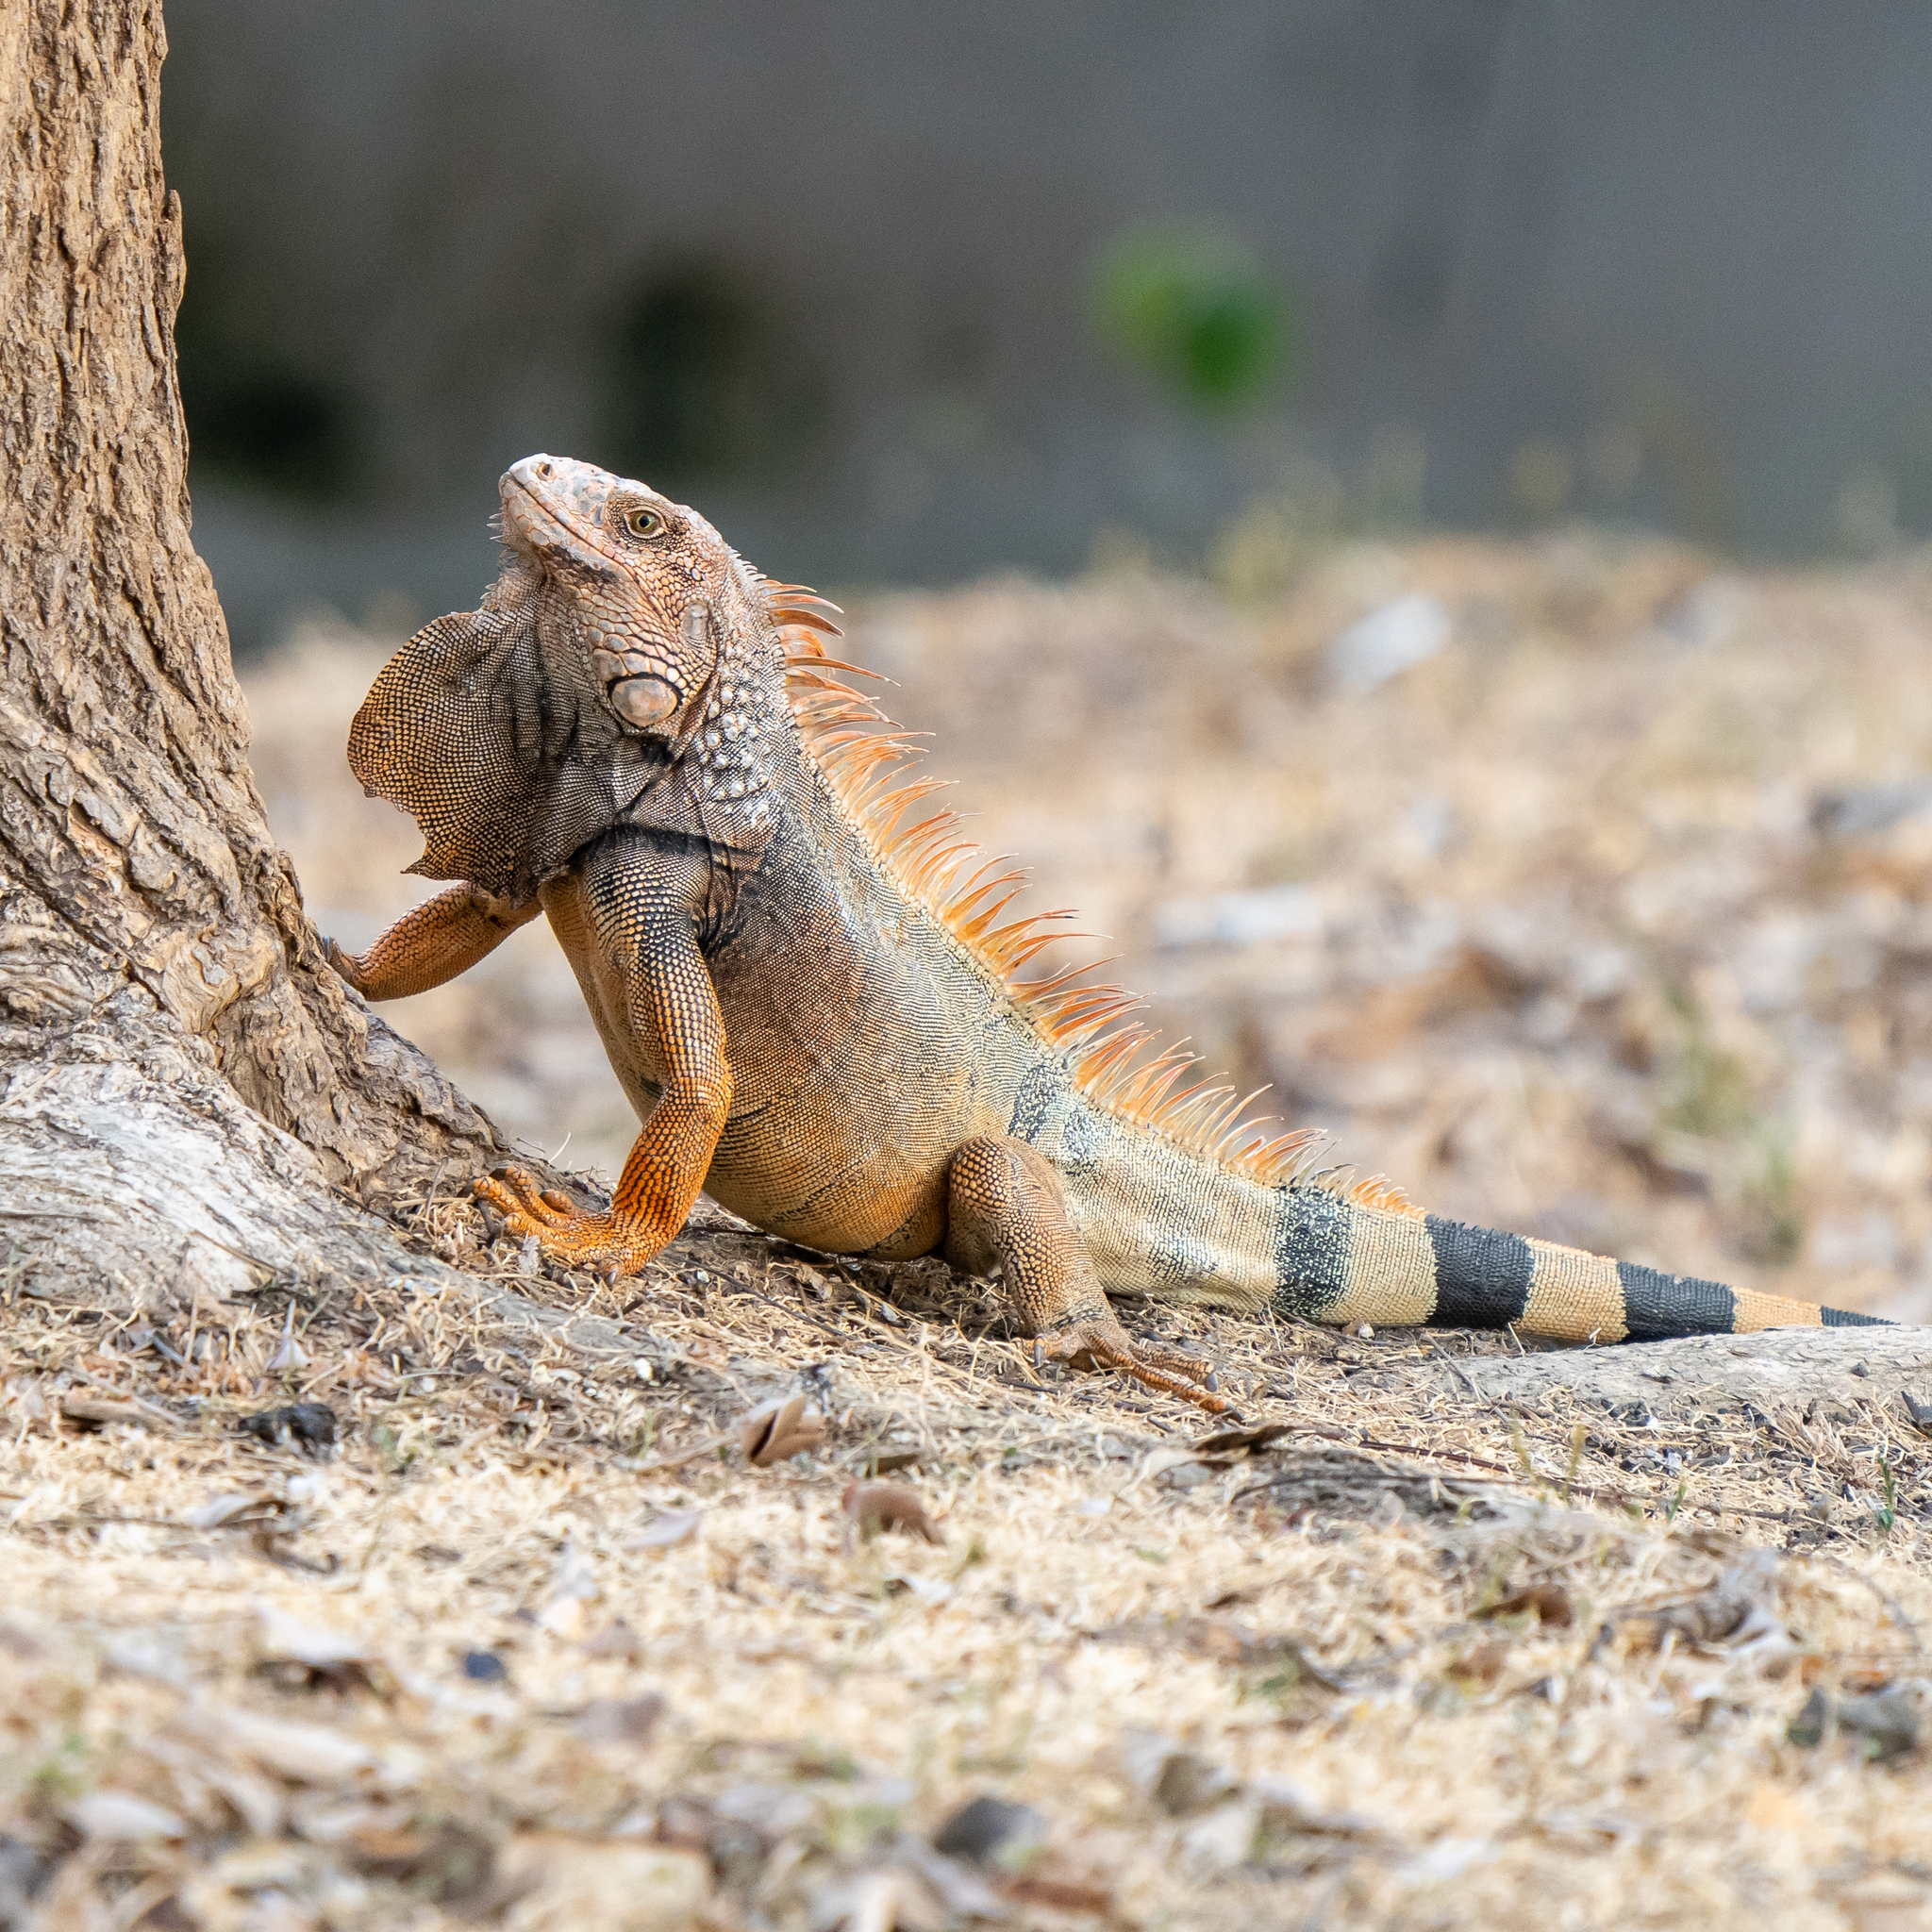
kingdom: Animalia
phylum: Chordata
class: Squamata
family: Iguanidae
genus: Iguana
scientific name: Iguana iguana
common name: Green iguana
